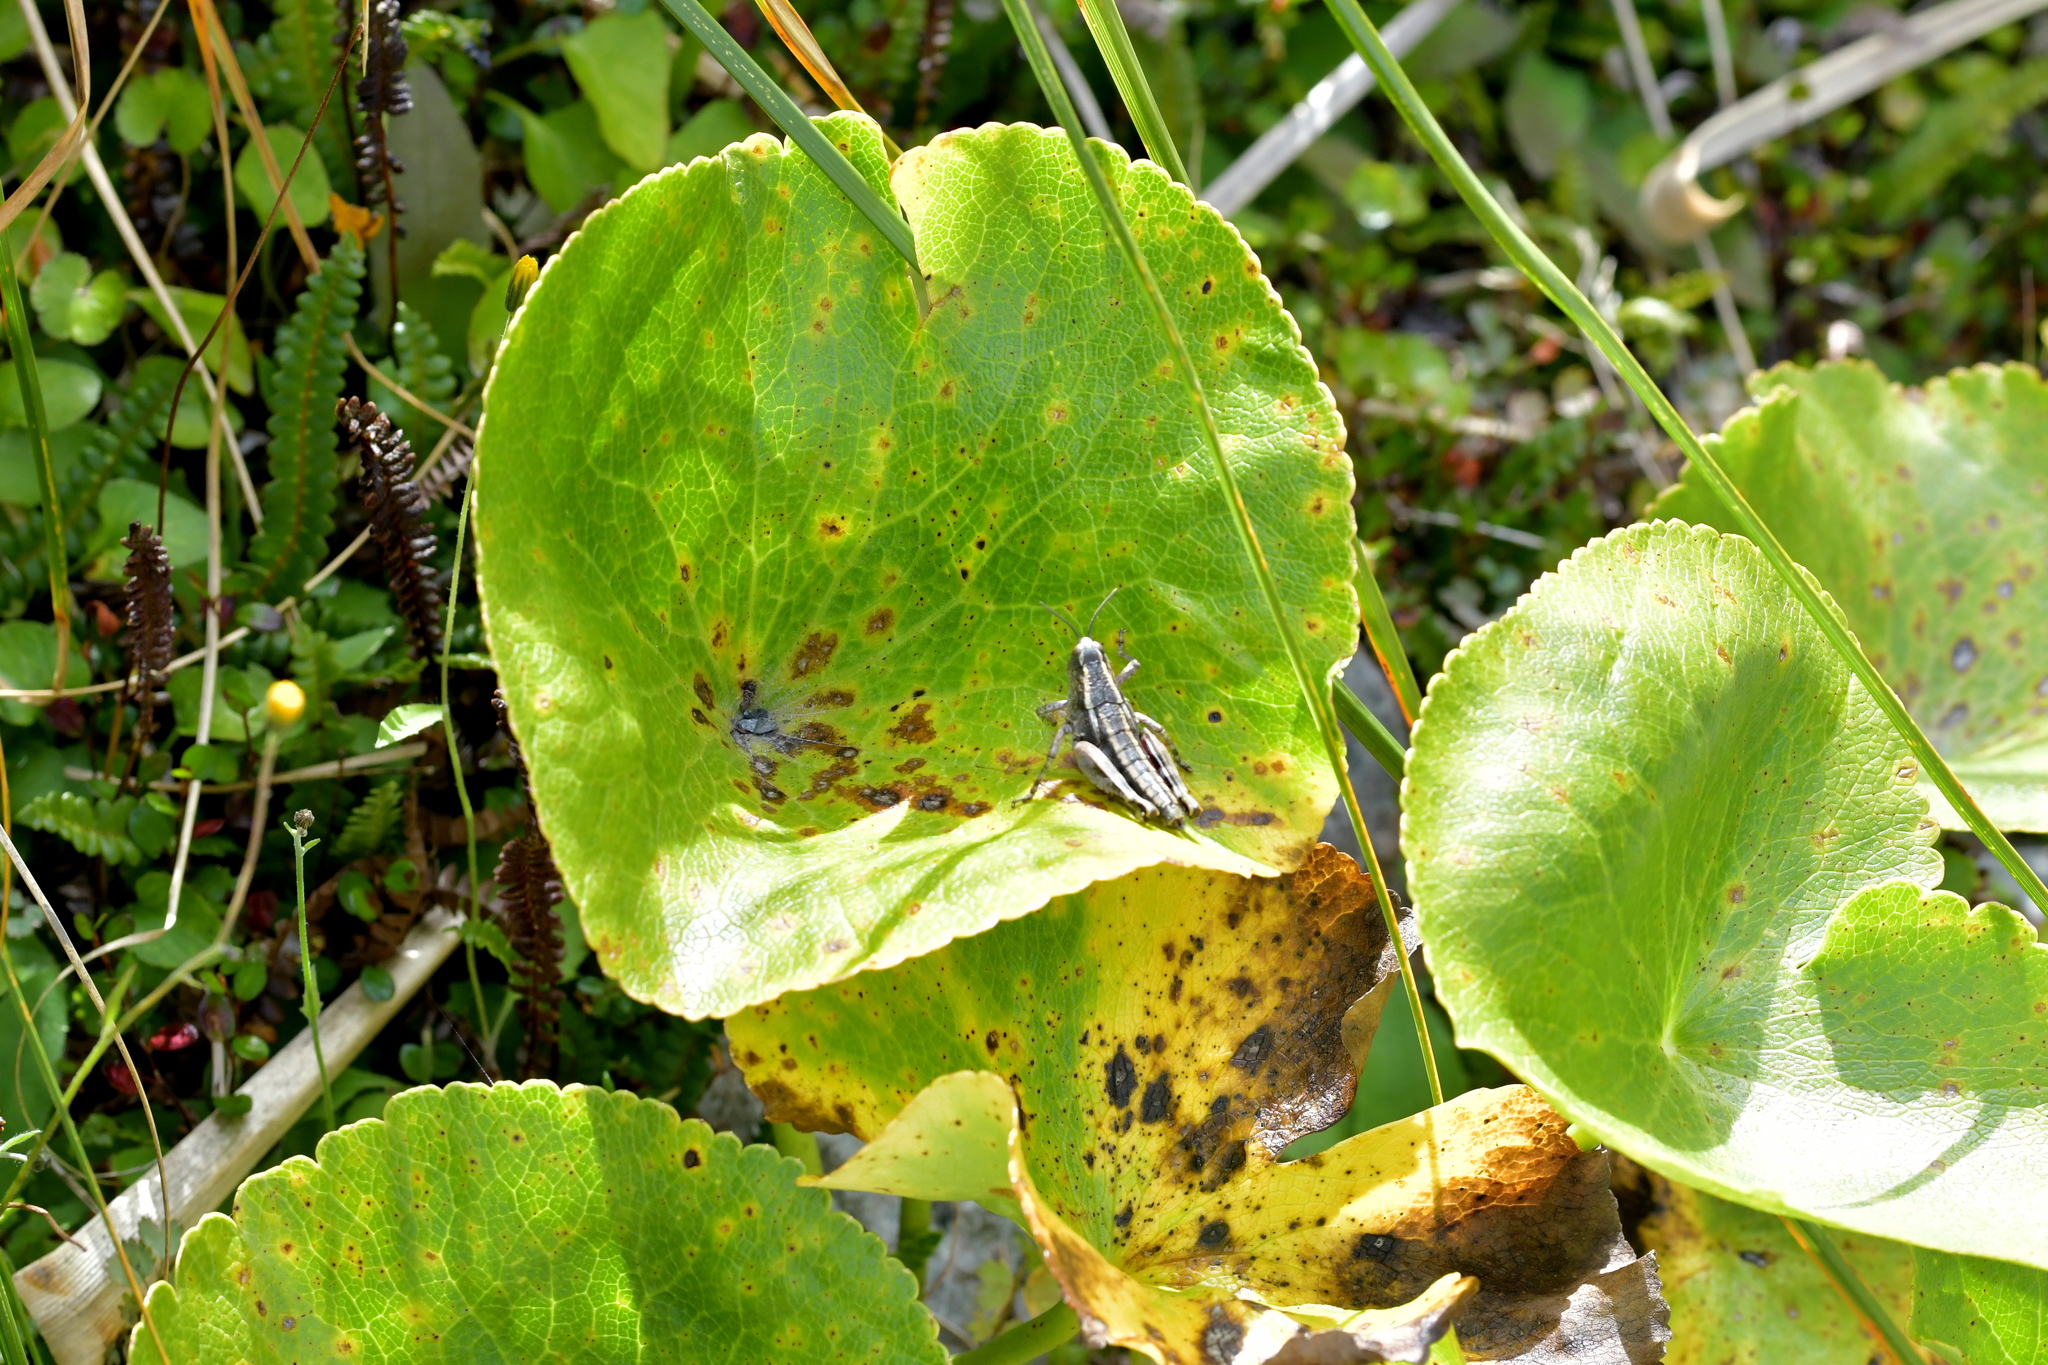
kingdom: Animalia
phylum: Arthropoda
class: Insecta
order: Orthoptera
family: Acrididae
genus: Sigaus
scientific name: Sigaus
